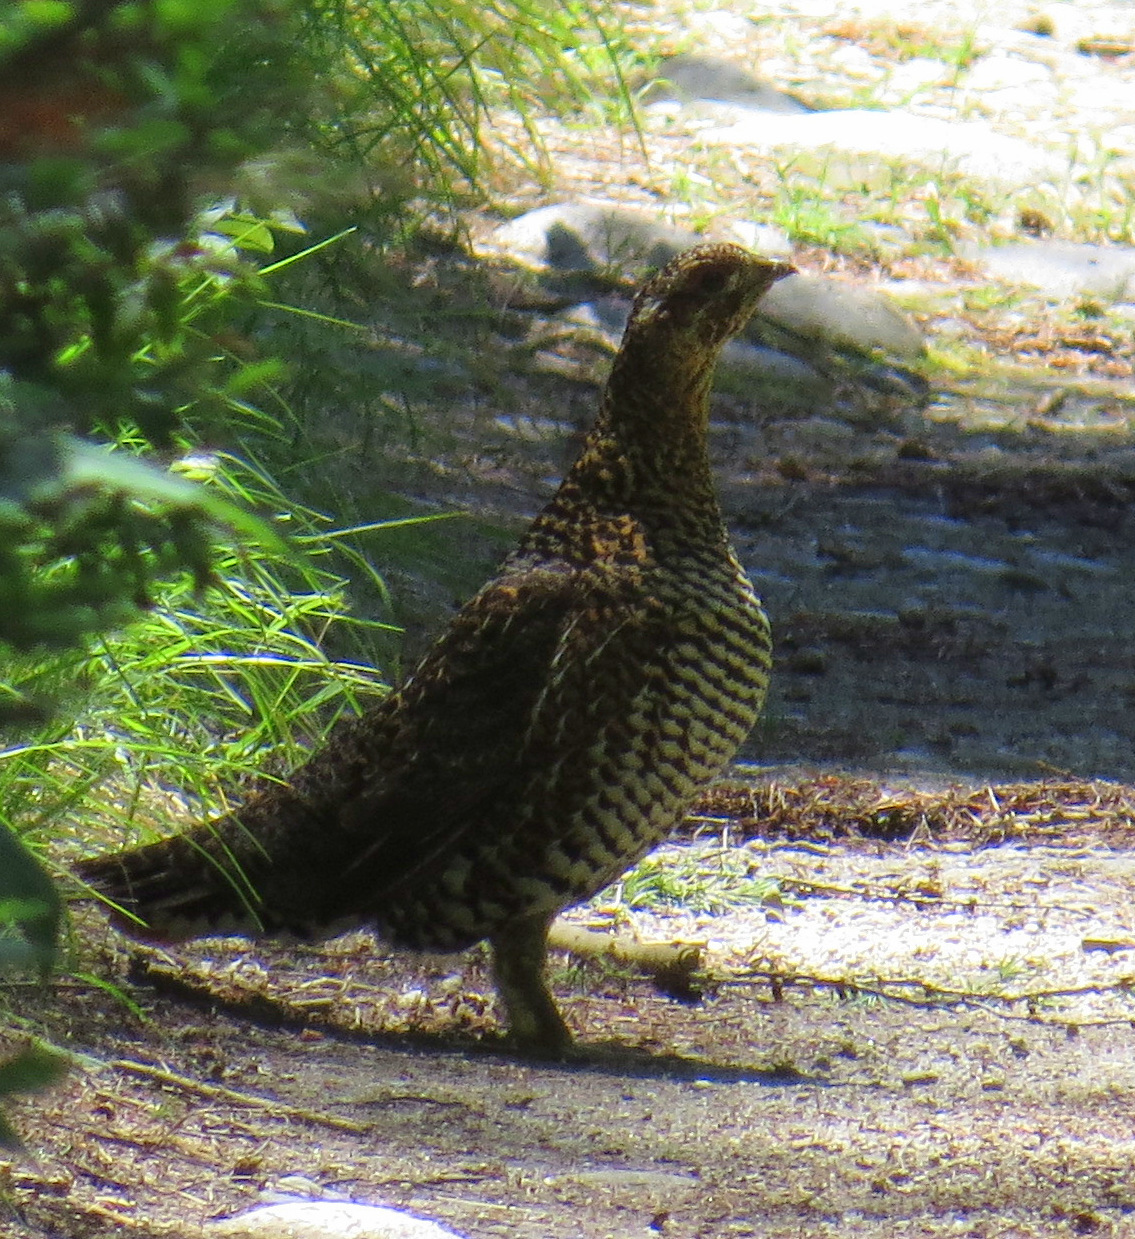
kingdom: Animalia
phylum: Chordata
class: Aves
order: Galliformes
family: Phasianidae
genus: Canachites
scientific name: Canachites canadensis
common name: Spruce grouse
